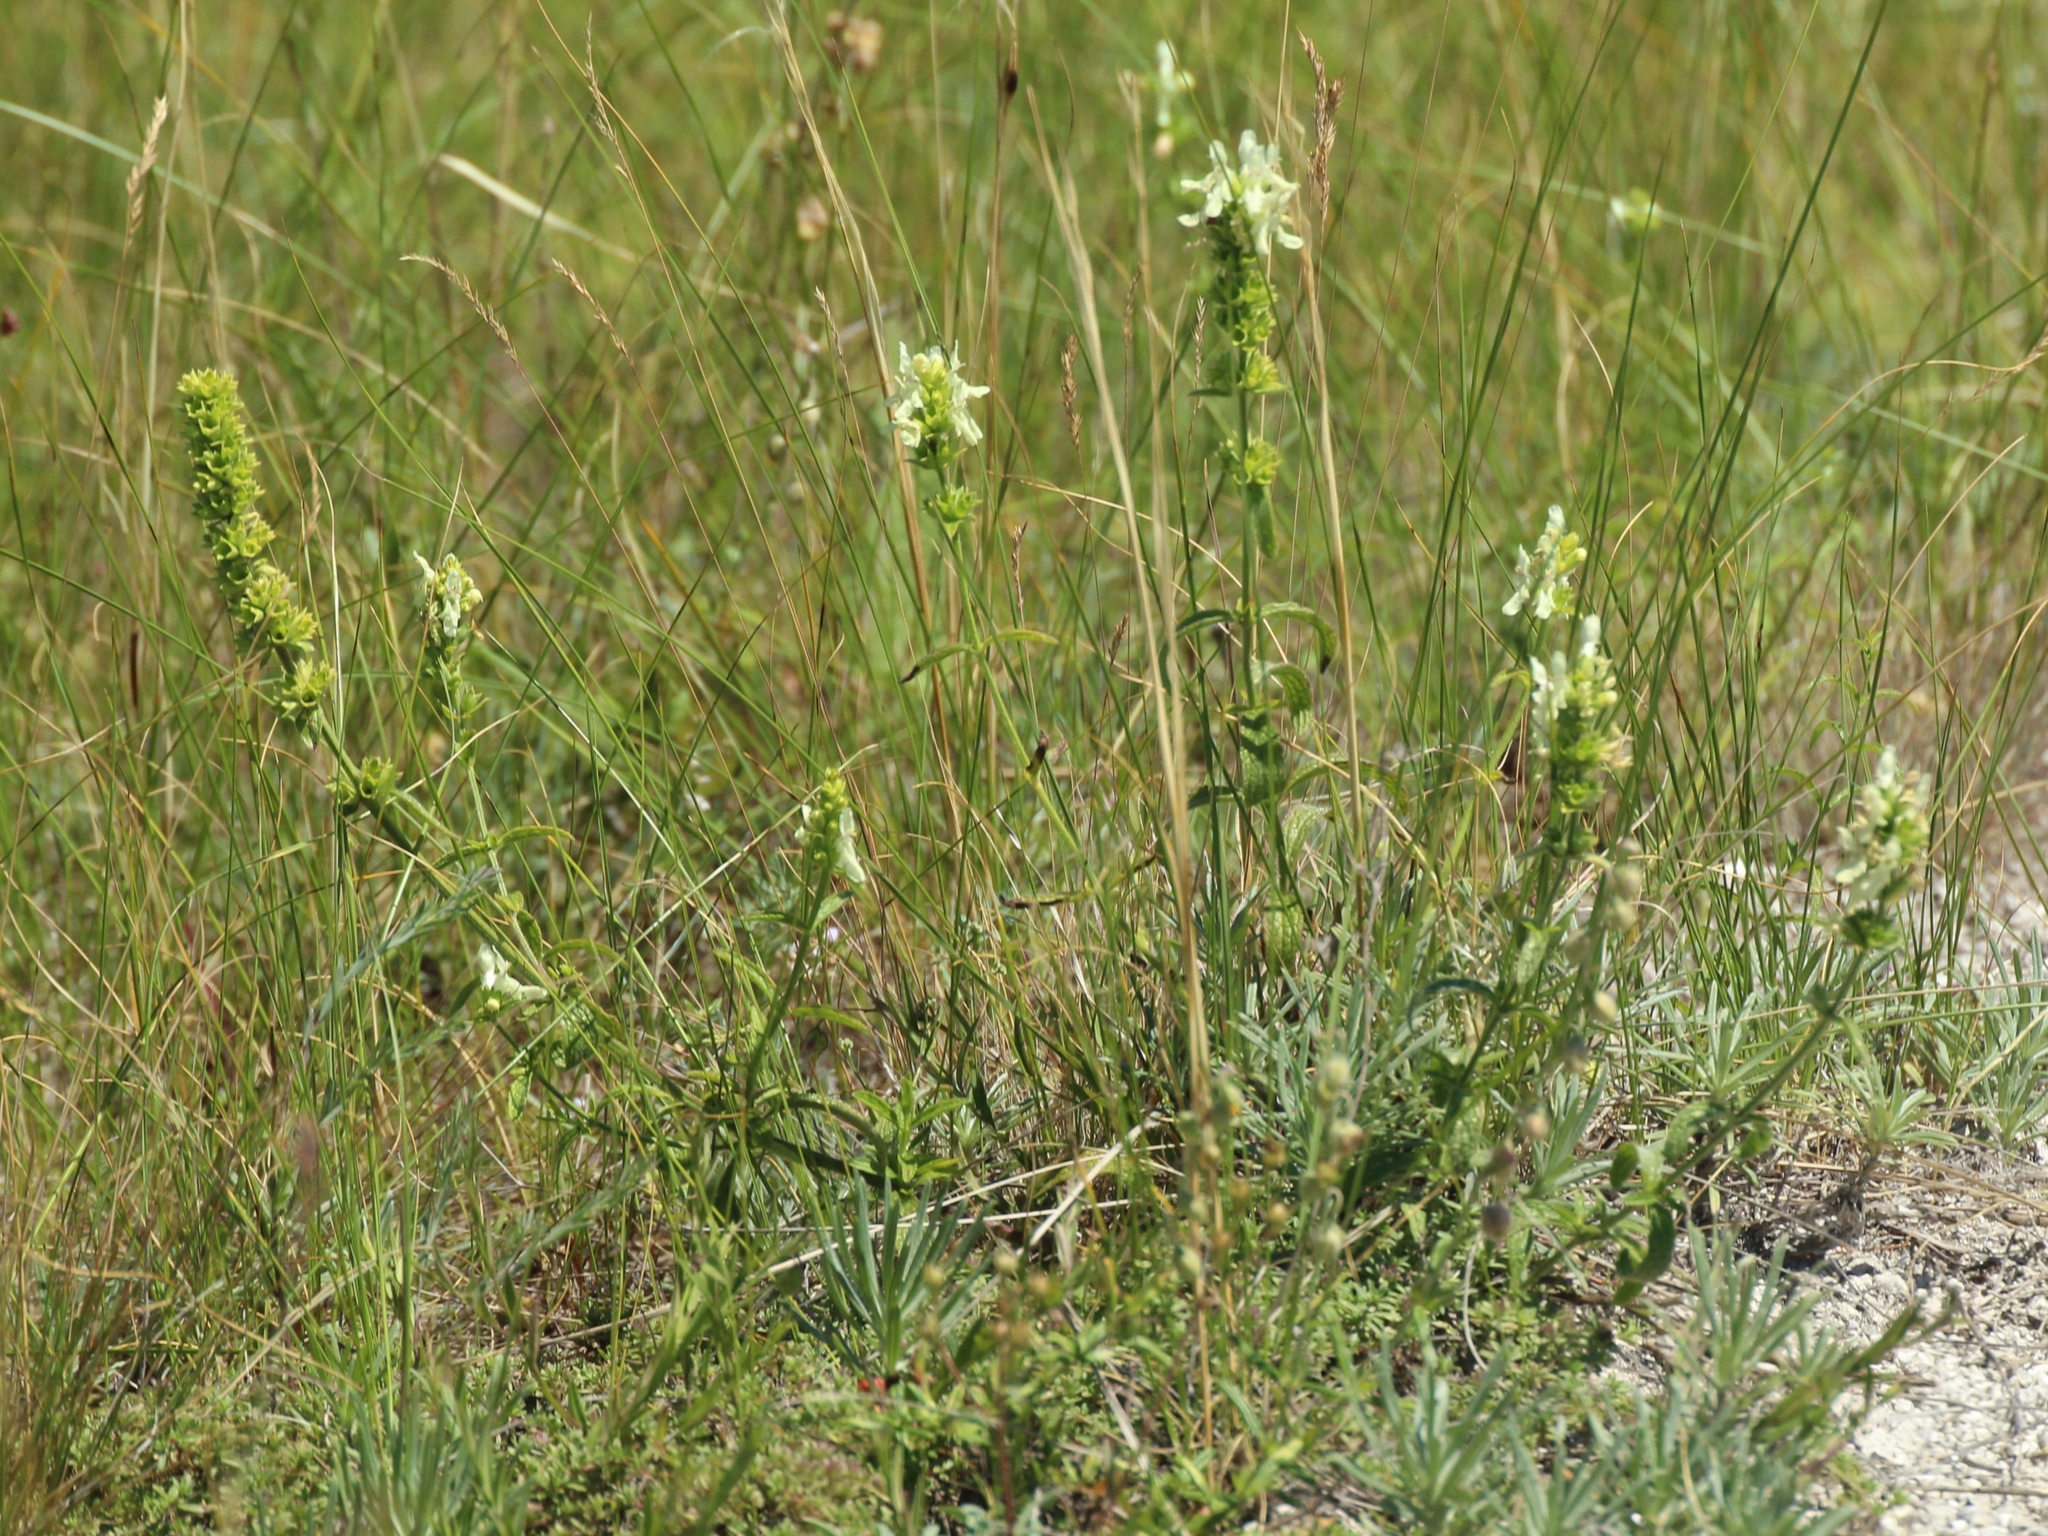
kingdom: Plantae
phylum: Tracheophyta
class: Magnoliopsida
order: Lamiales
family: Lamiaceae
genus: Stachys
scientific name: Stachys recta
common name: Perennial yellow-woundwort
